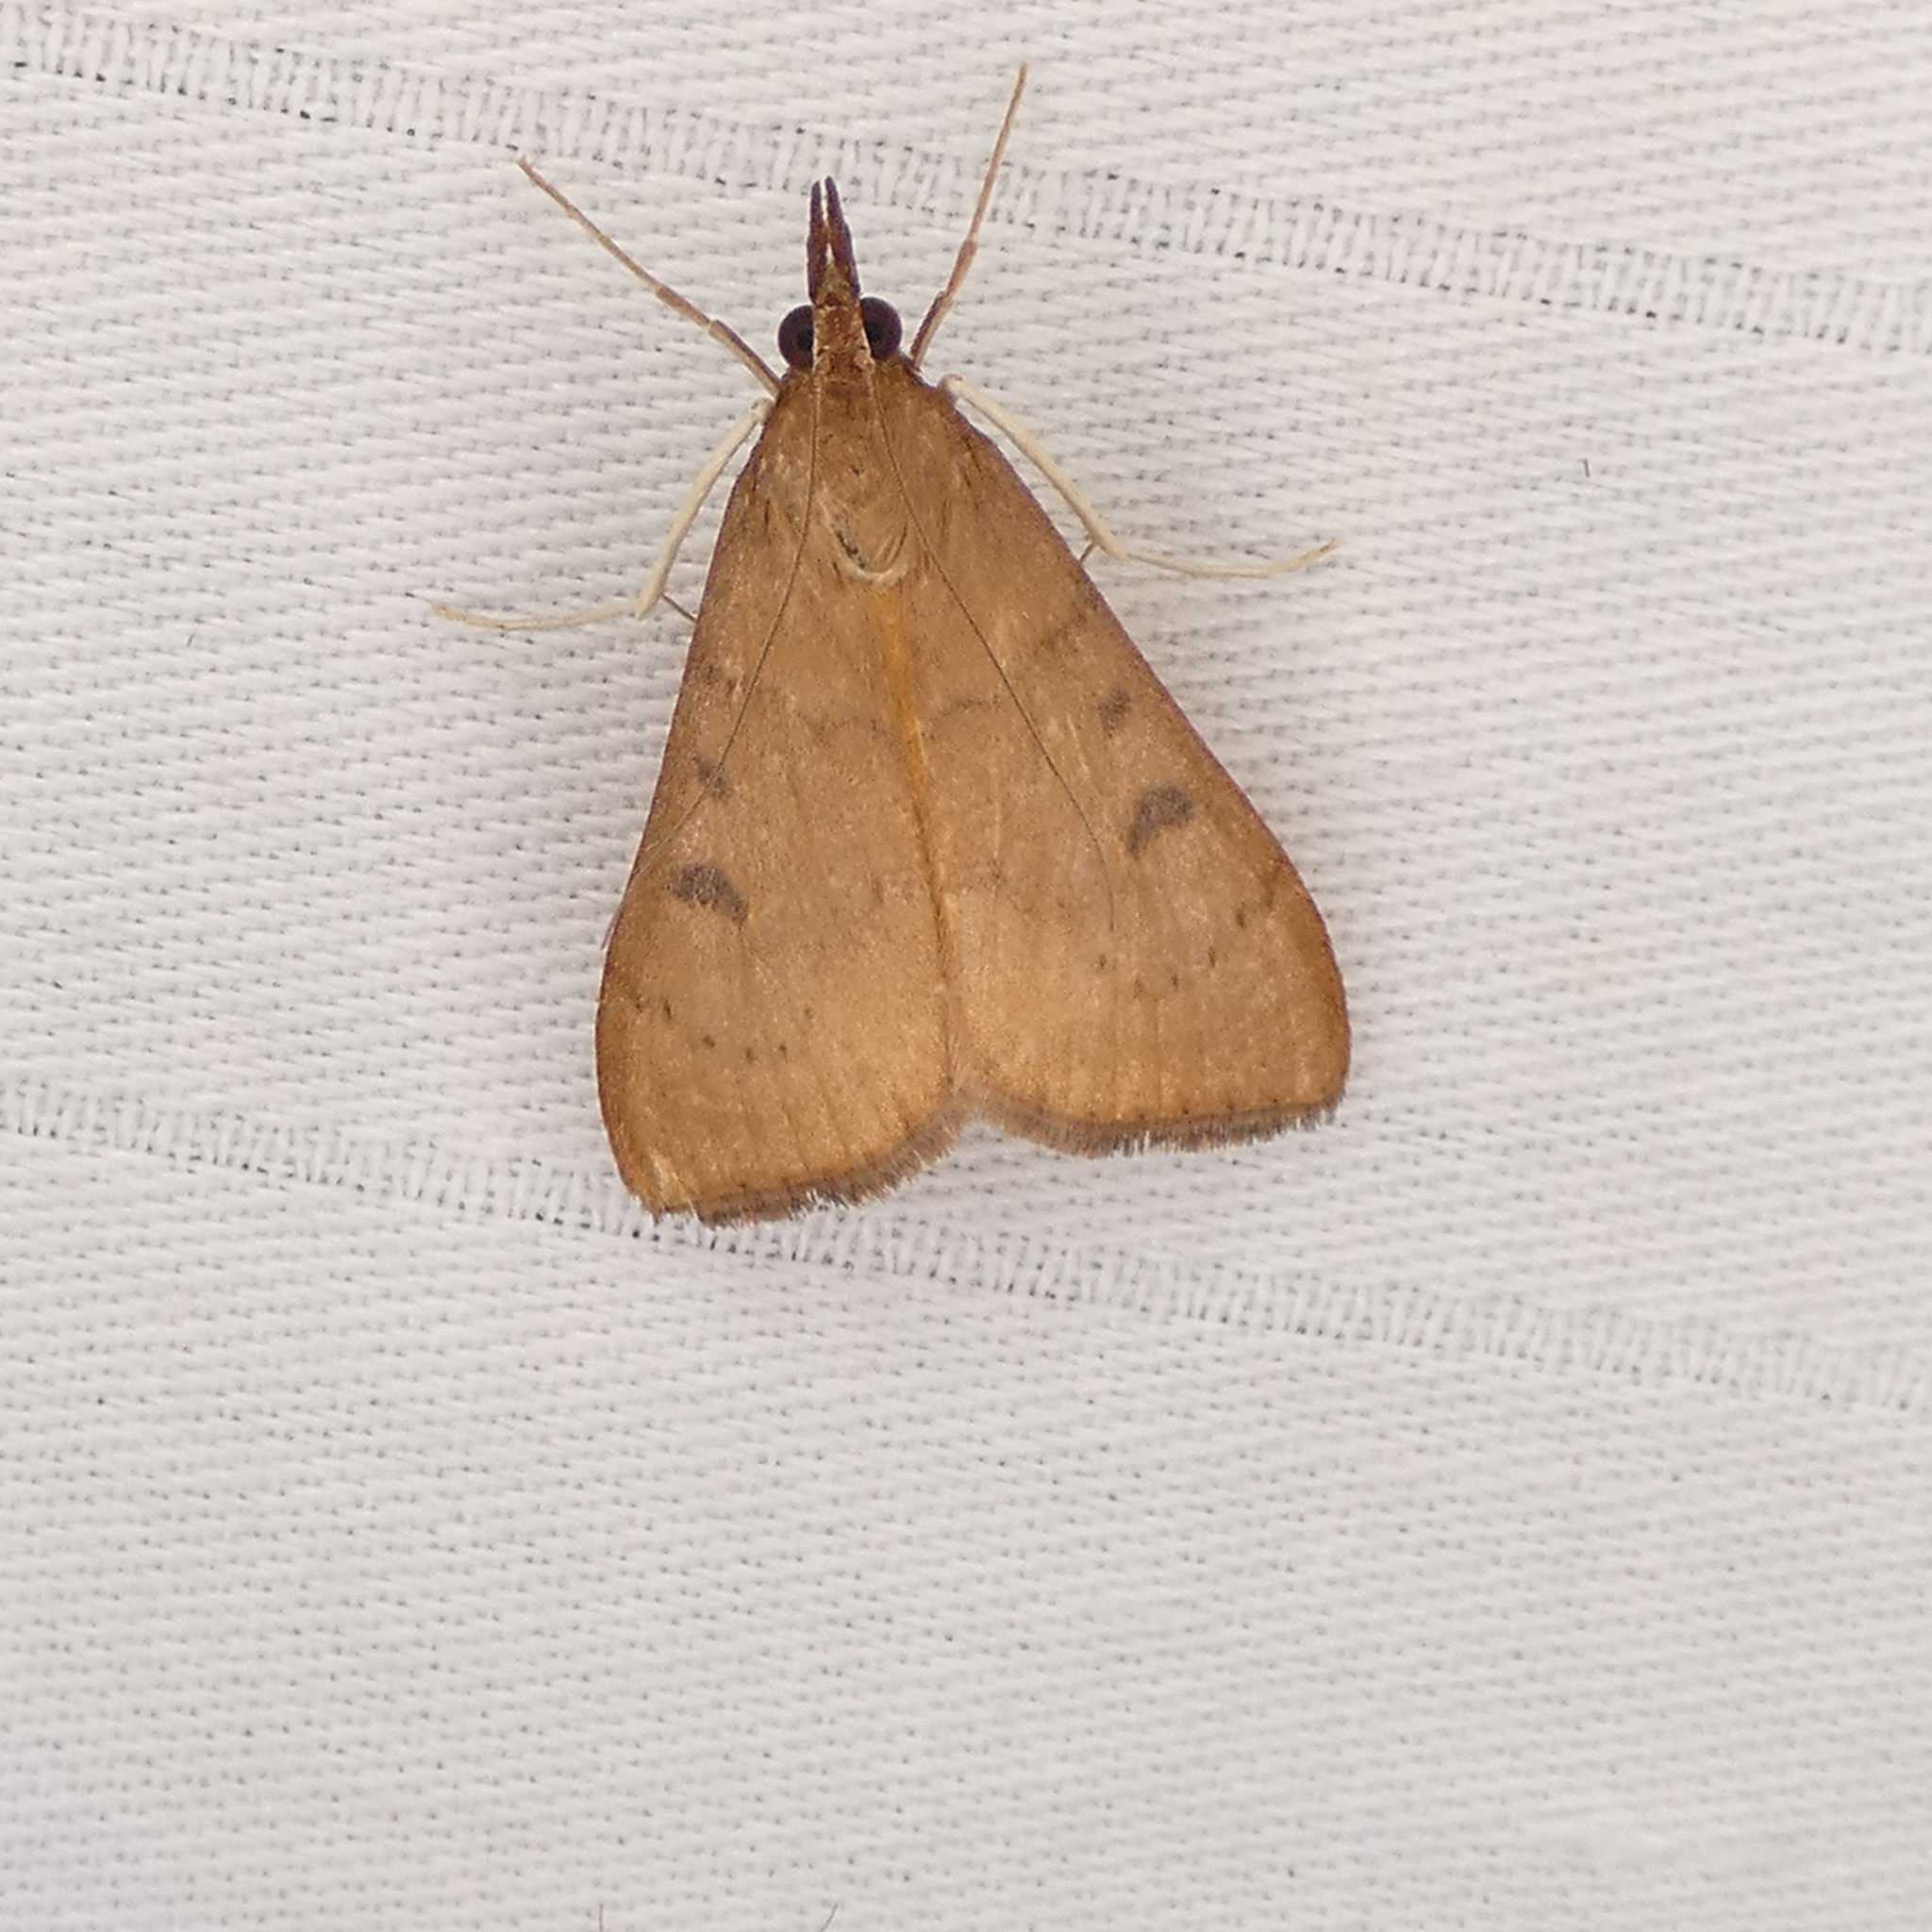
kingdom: Animalia
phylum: Arthropoda
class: Insecta
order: Lepidoptera
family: Crambidae
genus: Uresiphita
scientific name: Uresiphita reversalis
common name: Genista broom moth
